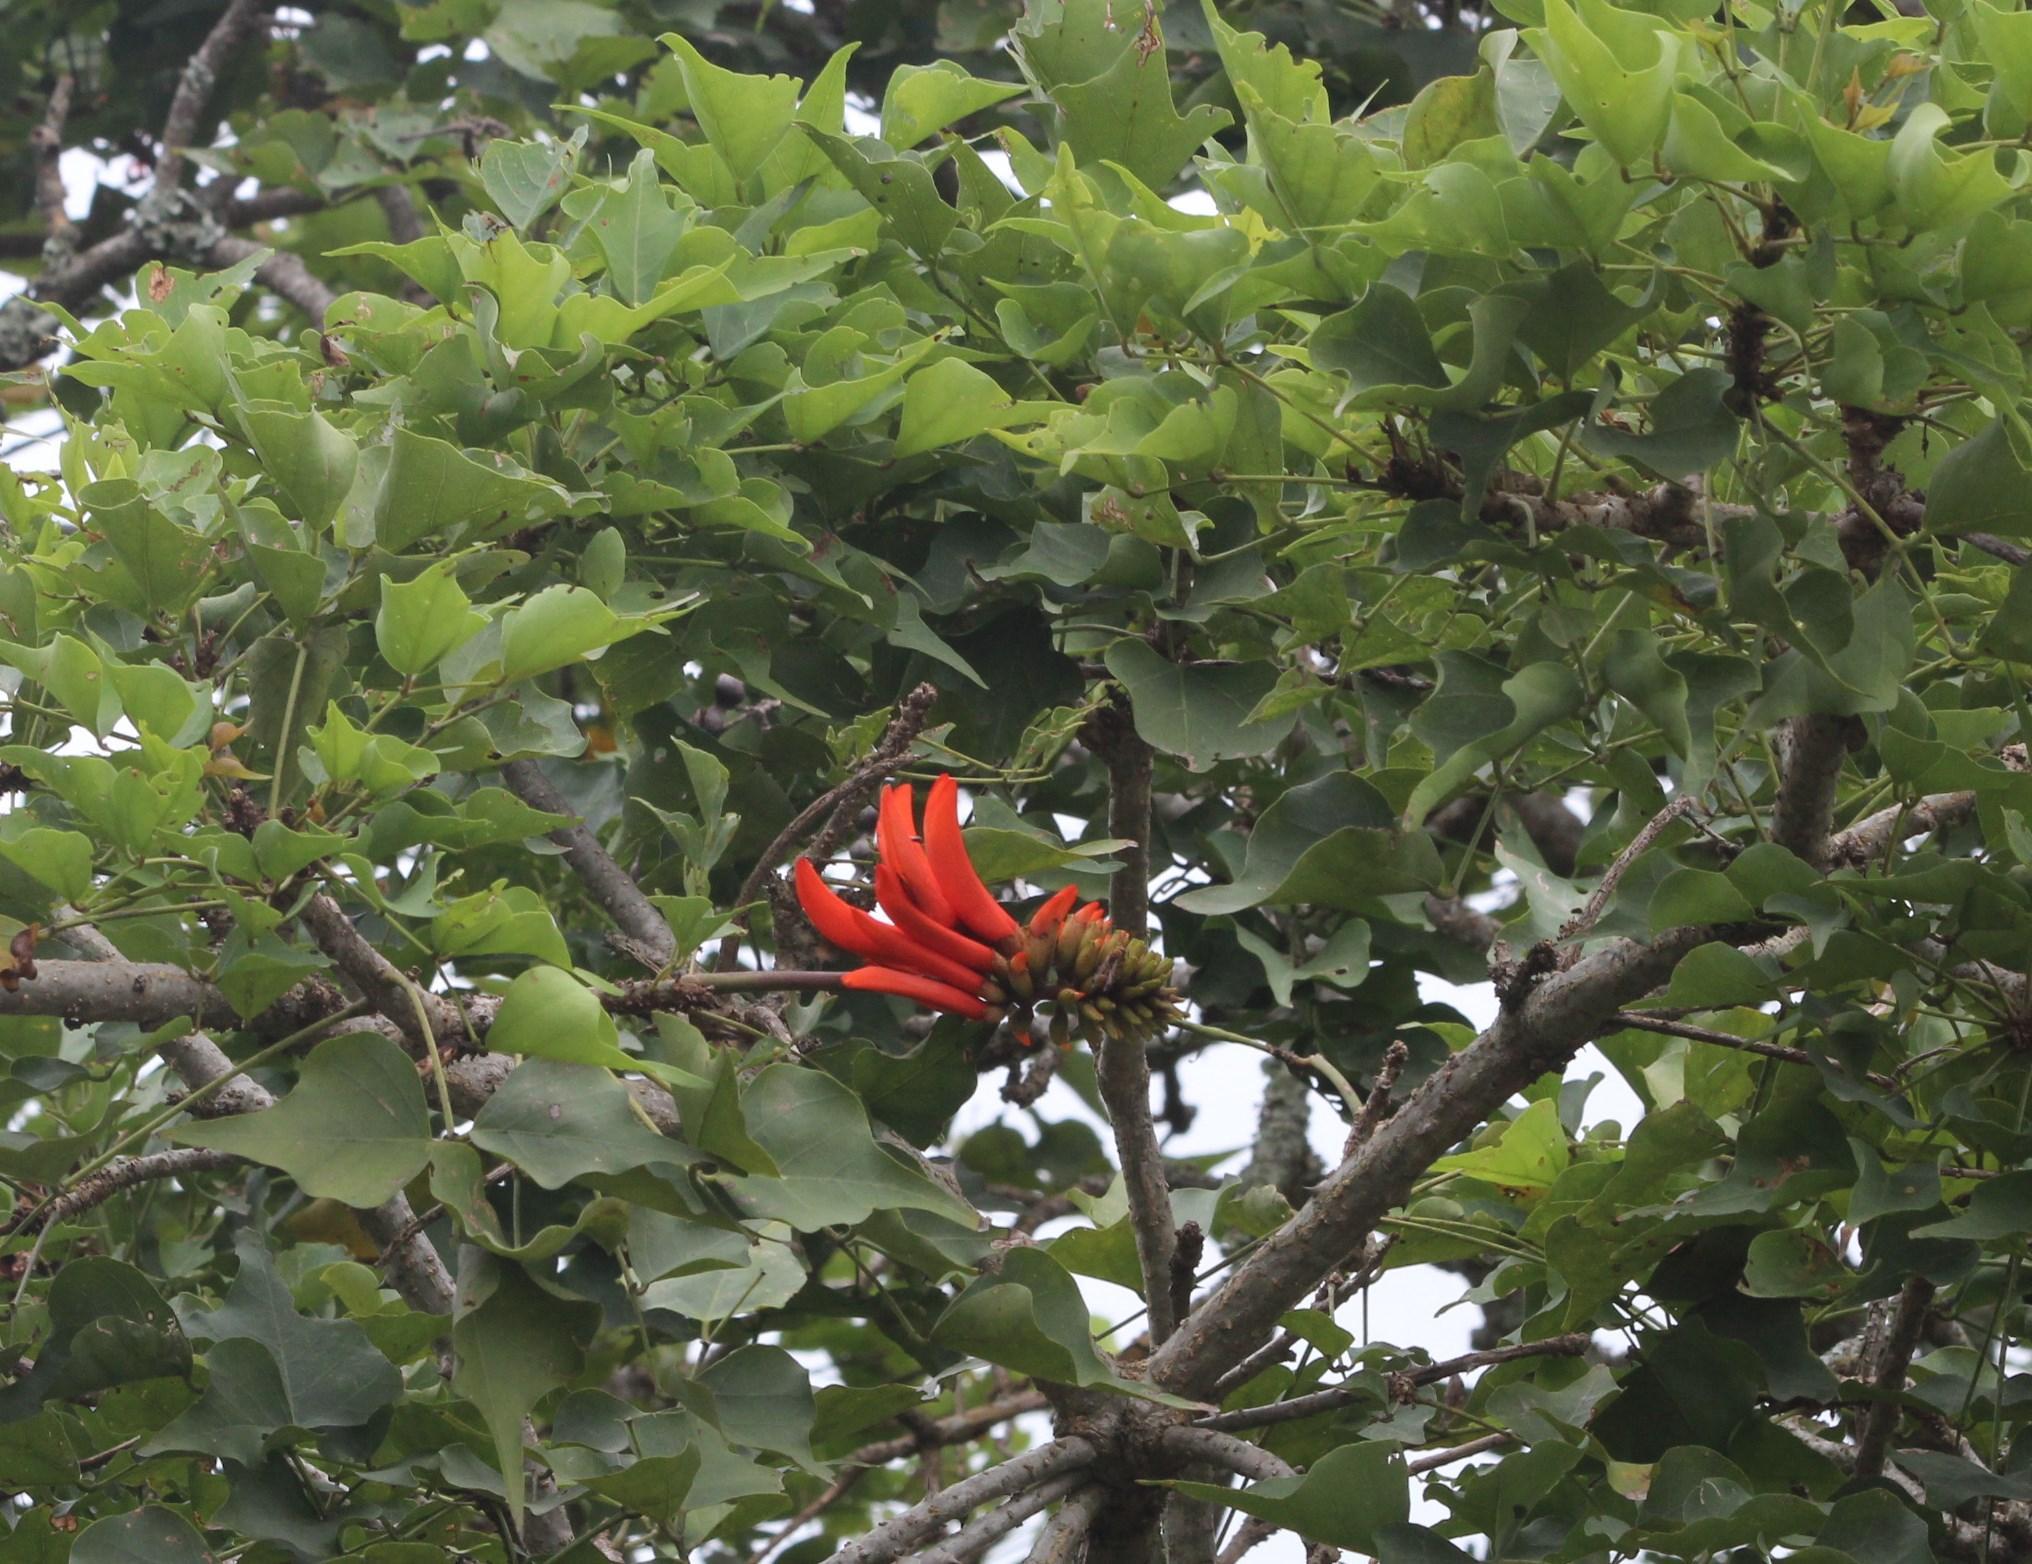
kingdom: Plantae
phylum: Tracheophyta
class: Magnoliopsida
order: Fabales
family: Fabaceae
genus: Erythrina
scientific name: Erythrina lysistemon
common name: Common coral tree
